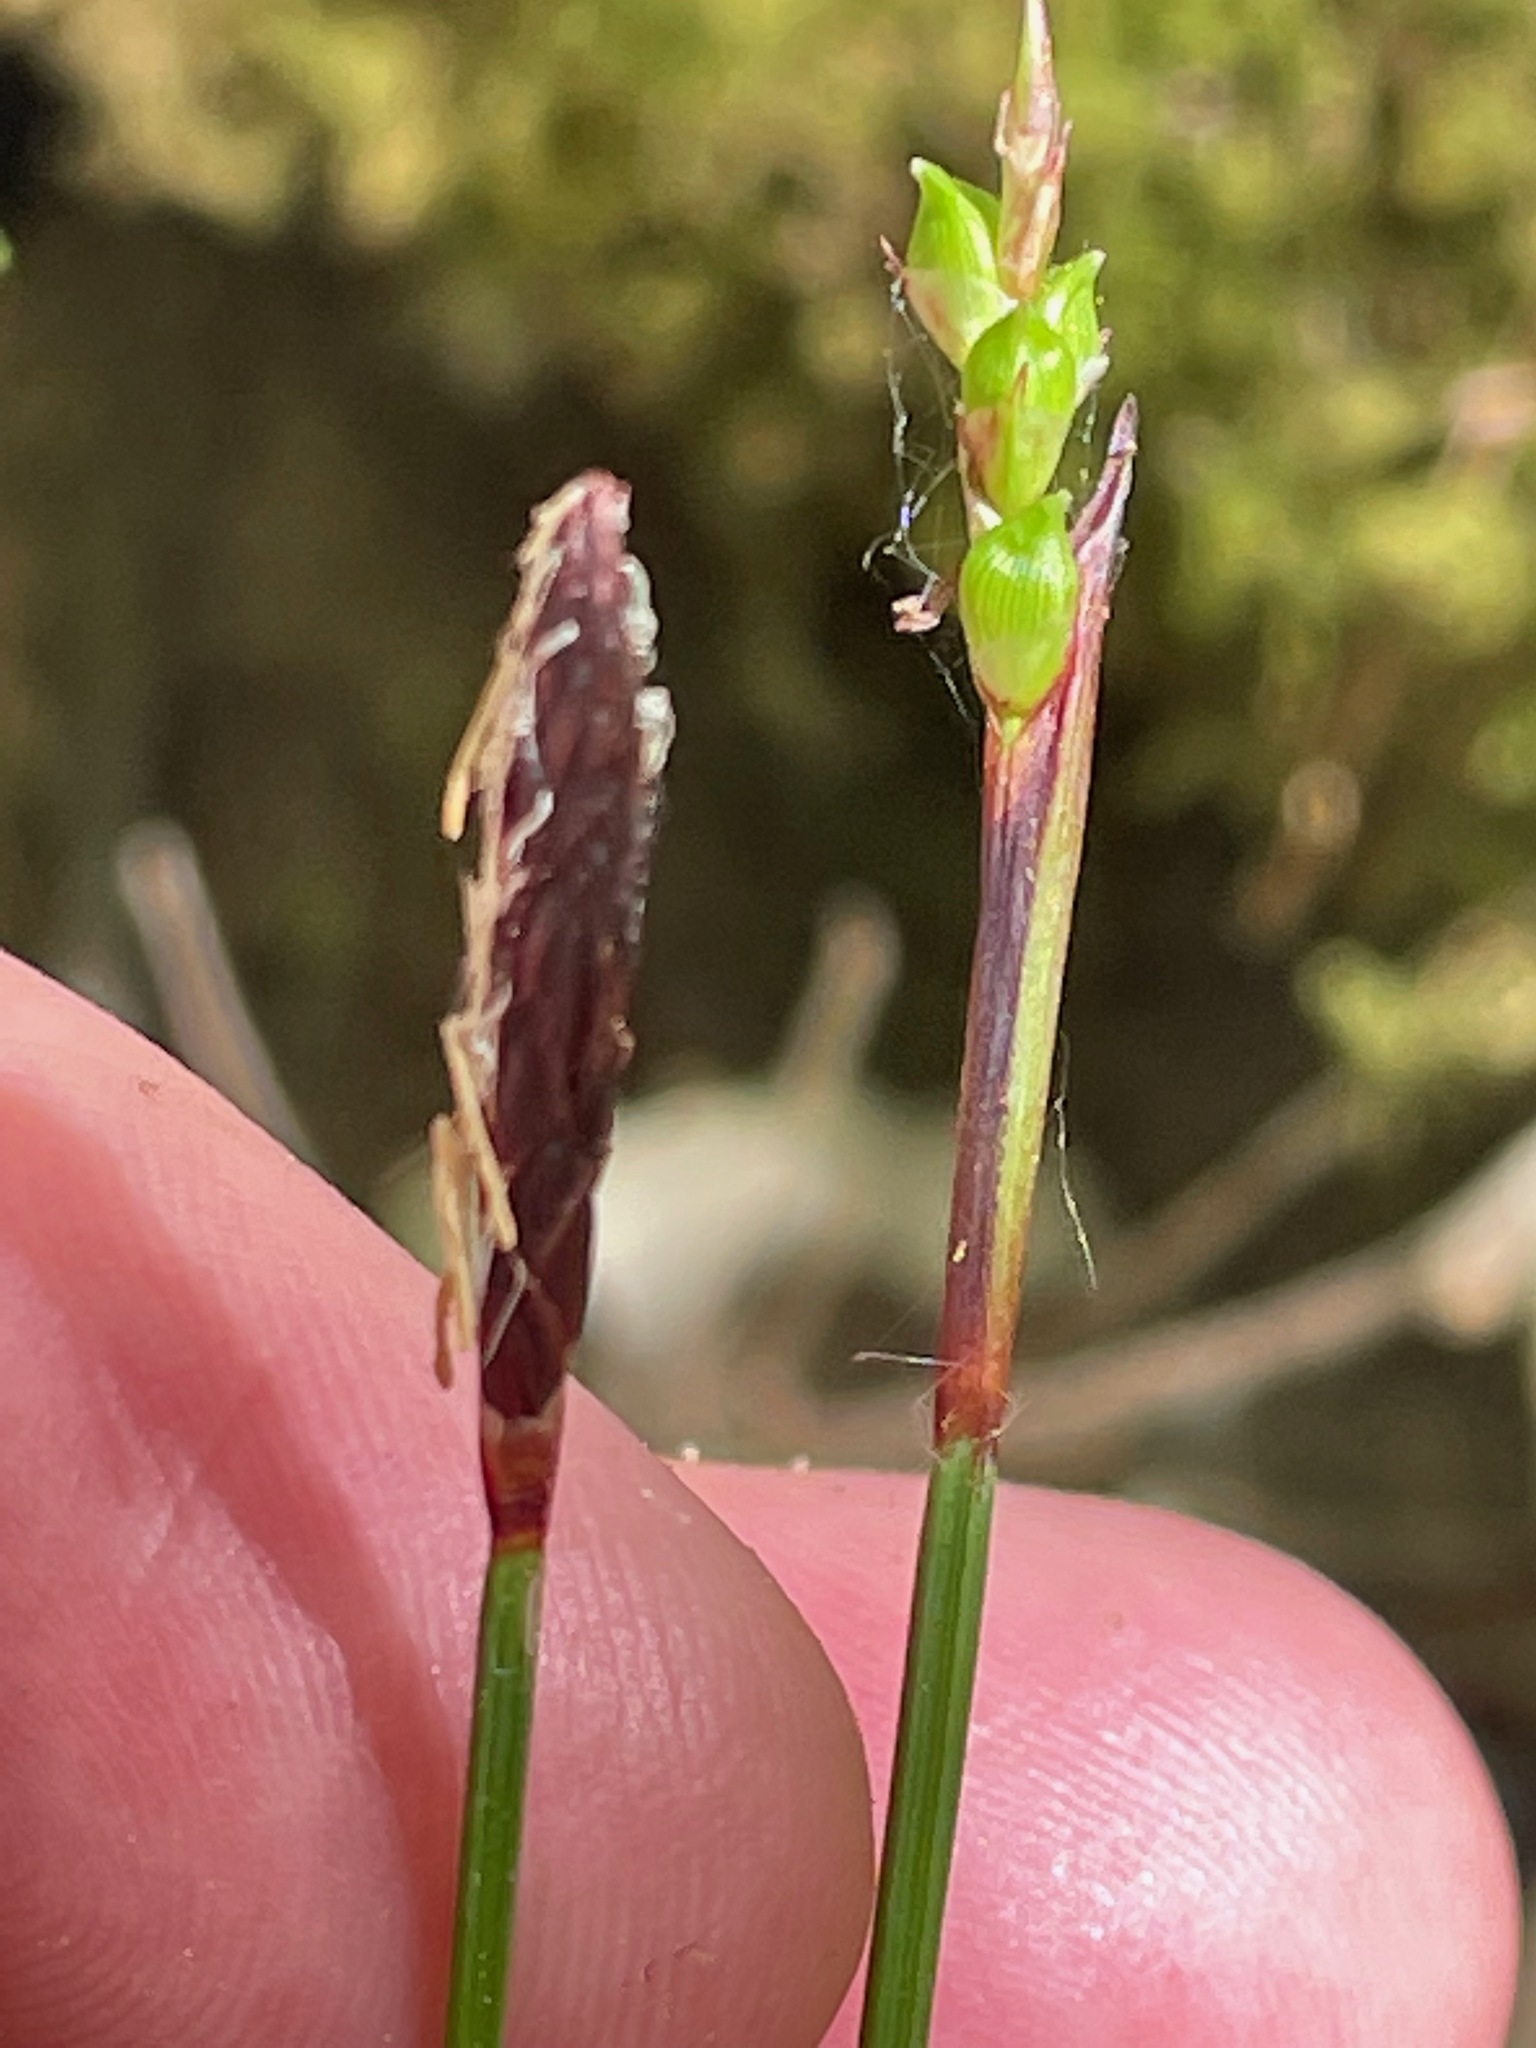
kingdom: Plantae
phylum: Tracheophyta
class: Liliopsida
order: Poales
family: Cyperaceae
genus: Carex
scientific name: Carex plantaginea
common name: Plantain-leaved sedge
